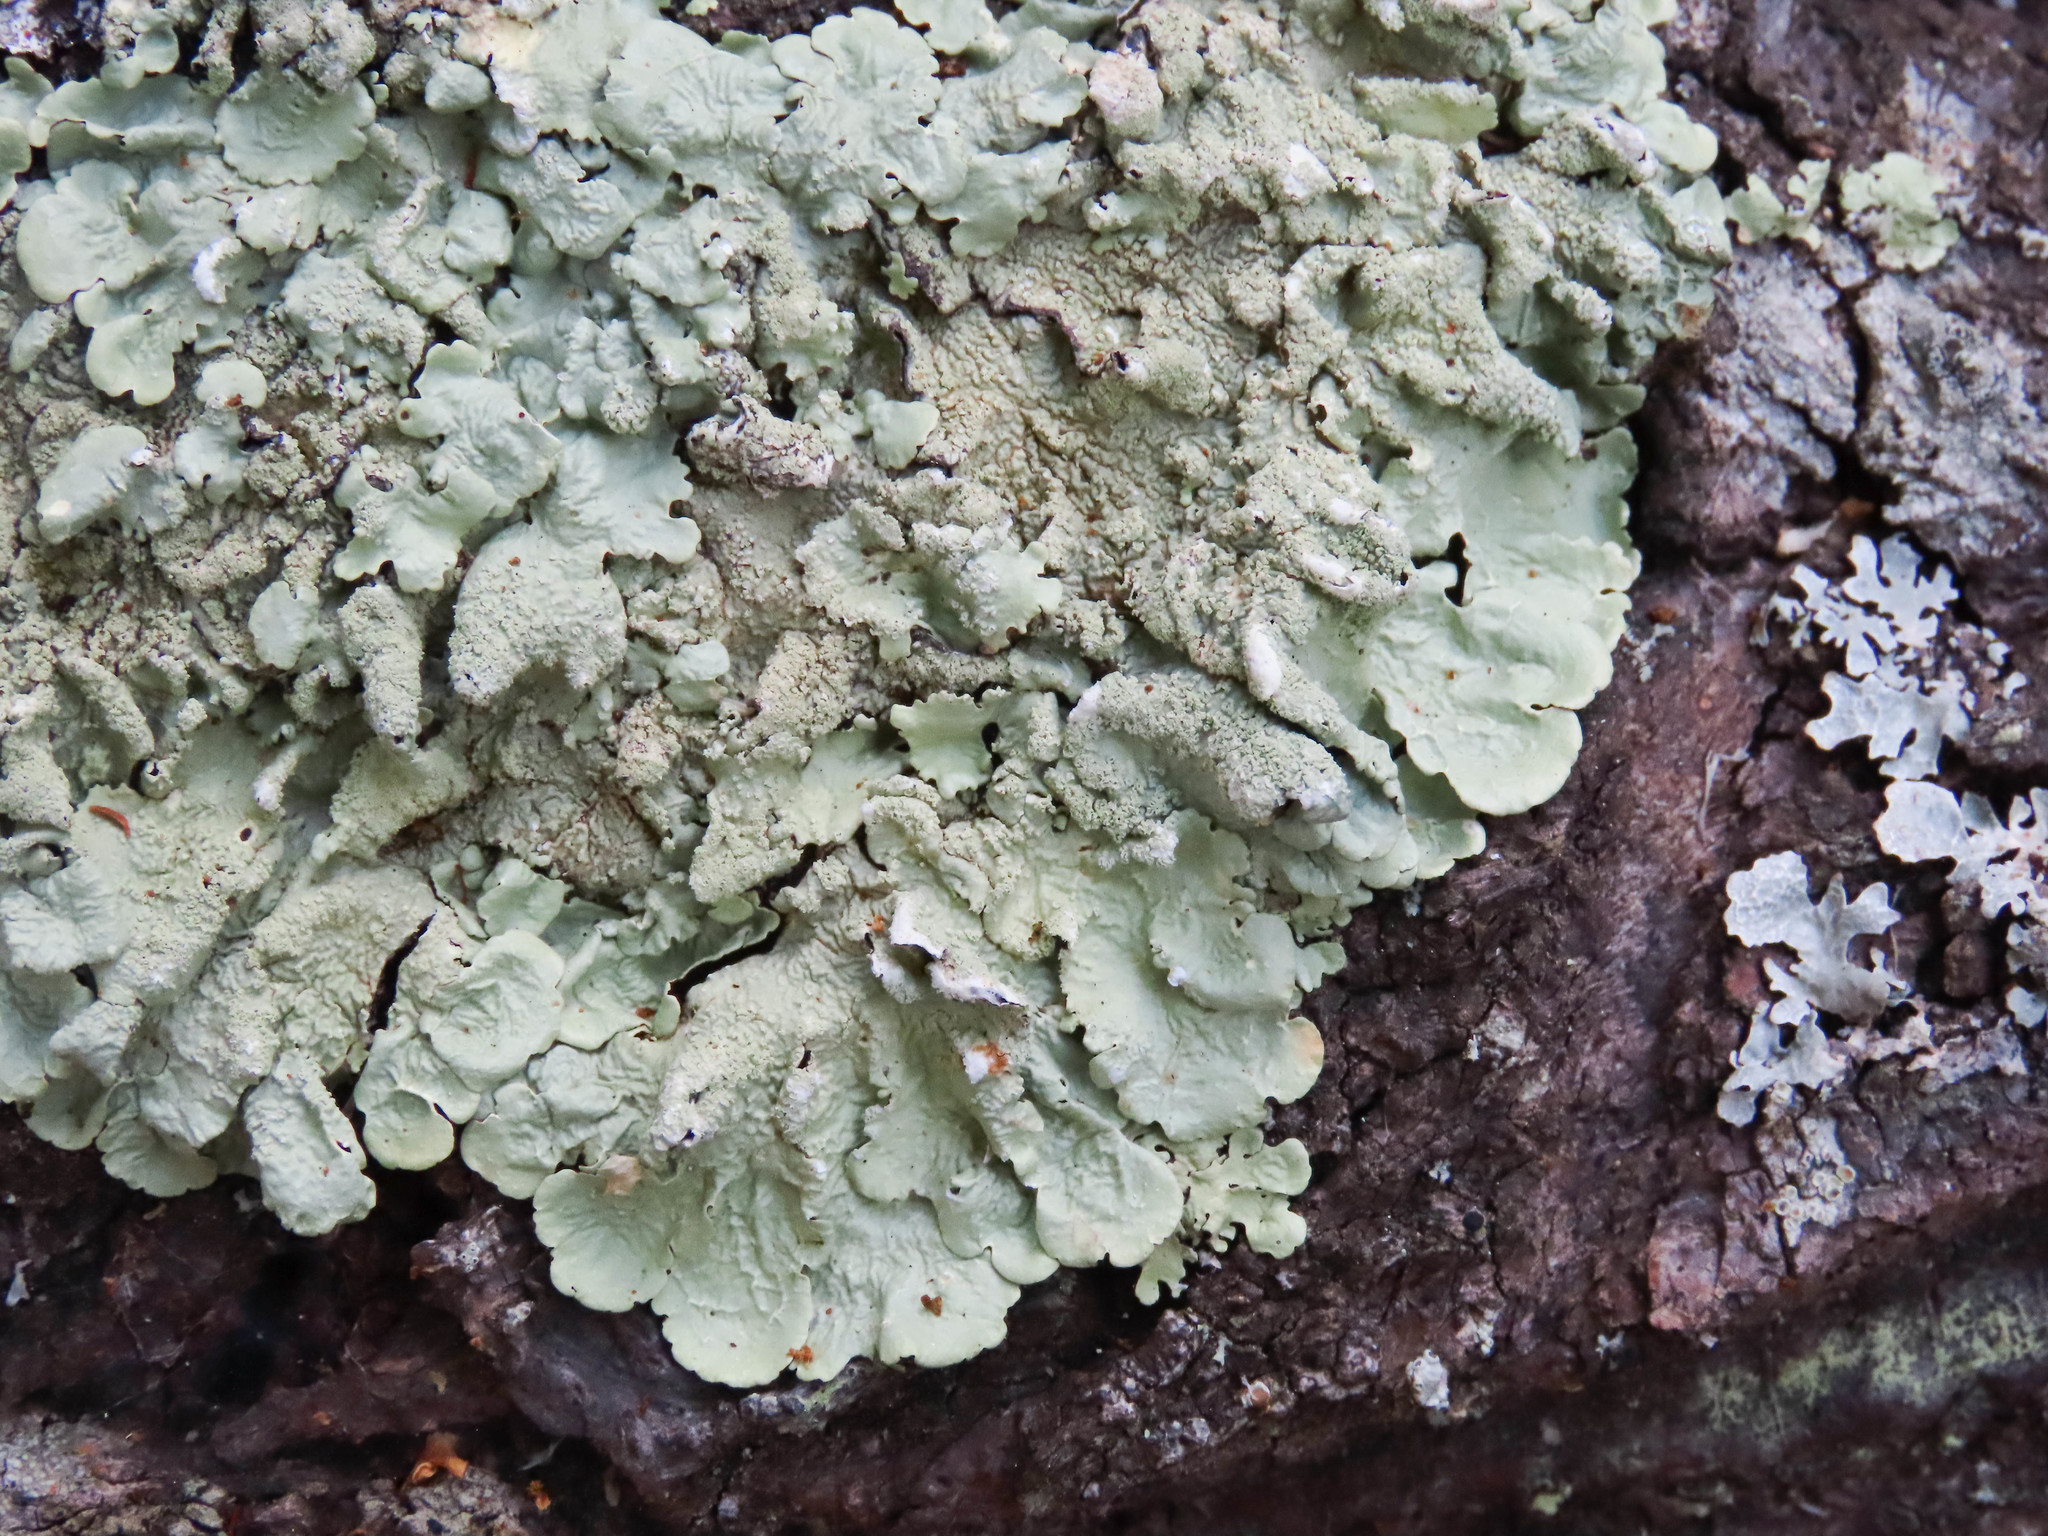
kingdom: Fungi
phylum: Ascomycota
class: Lecanoromycetes
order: Lecanorales
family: Parmeliaceae
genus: Flavoparmelia
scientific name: Flavoparmelia caperata
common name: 40-mile per hour lichen
